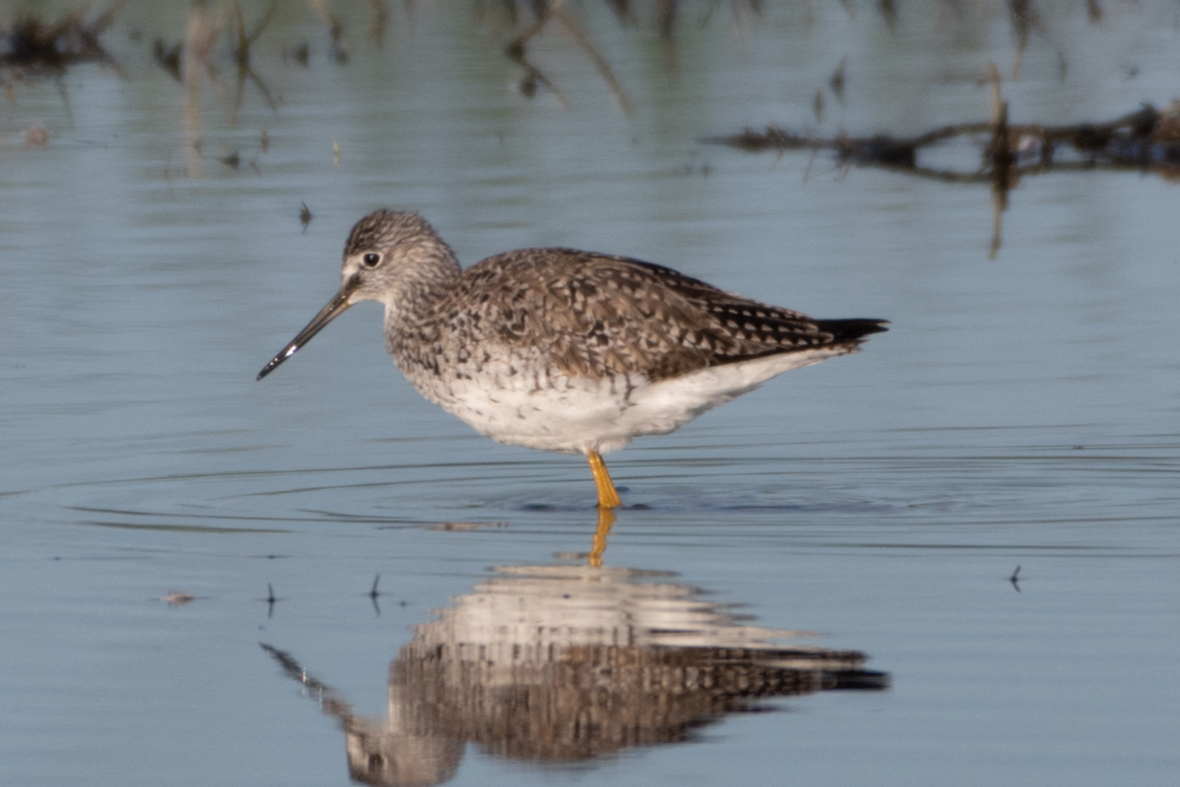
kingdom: Animalia
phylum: Chordata
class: Aves
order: Charadriiformes
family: Scolopacidae
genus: Tringa
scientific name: Tringa melanoleuca
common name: Greater yellowlegs
